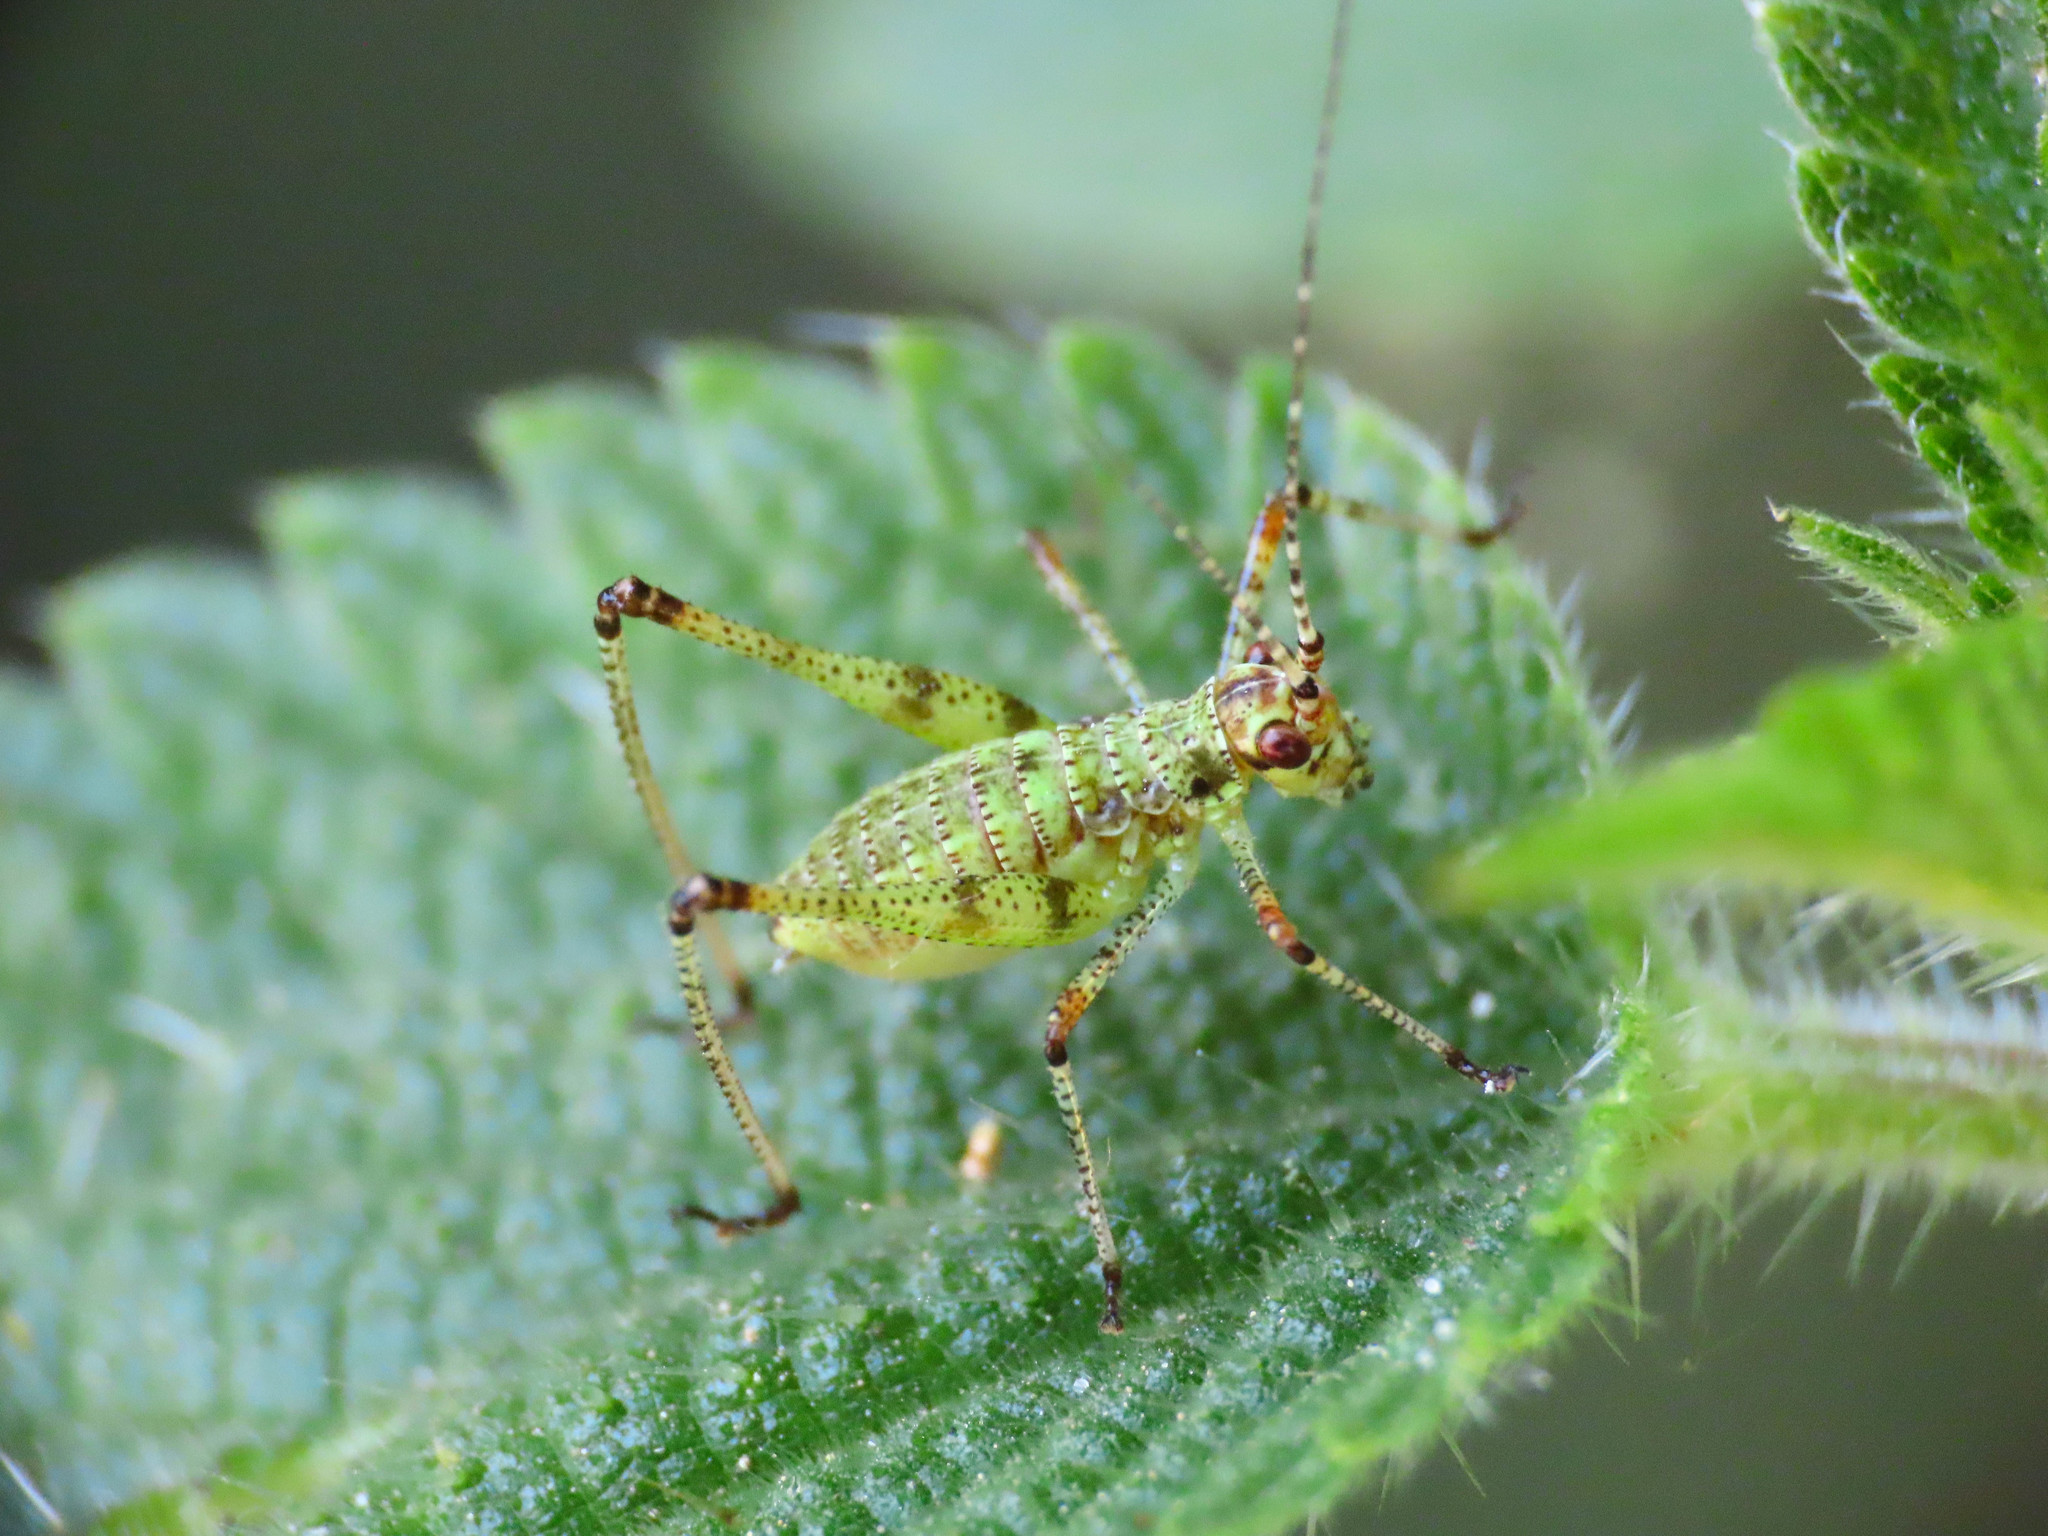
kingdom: Animalia
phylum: Arthropoda
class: Insecta
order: Orthoptera
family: Tettigoniidae
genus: Phaneroptera
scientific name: Phaneroptera nana
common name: Southern sickle bush-cricket
